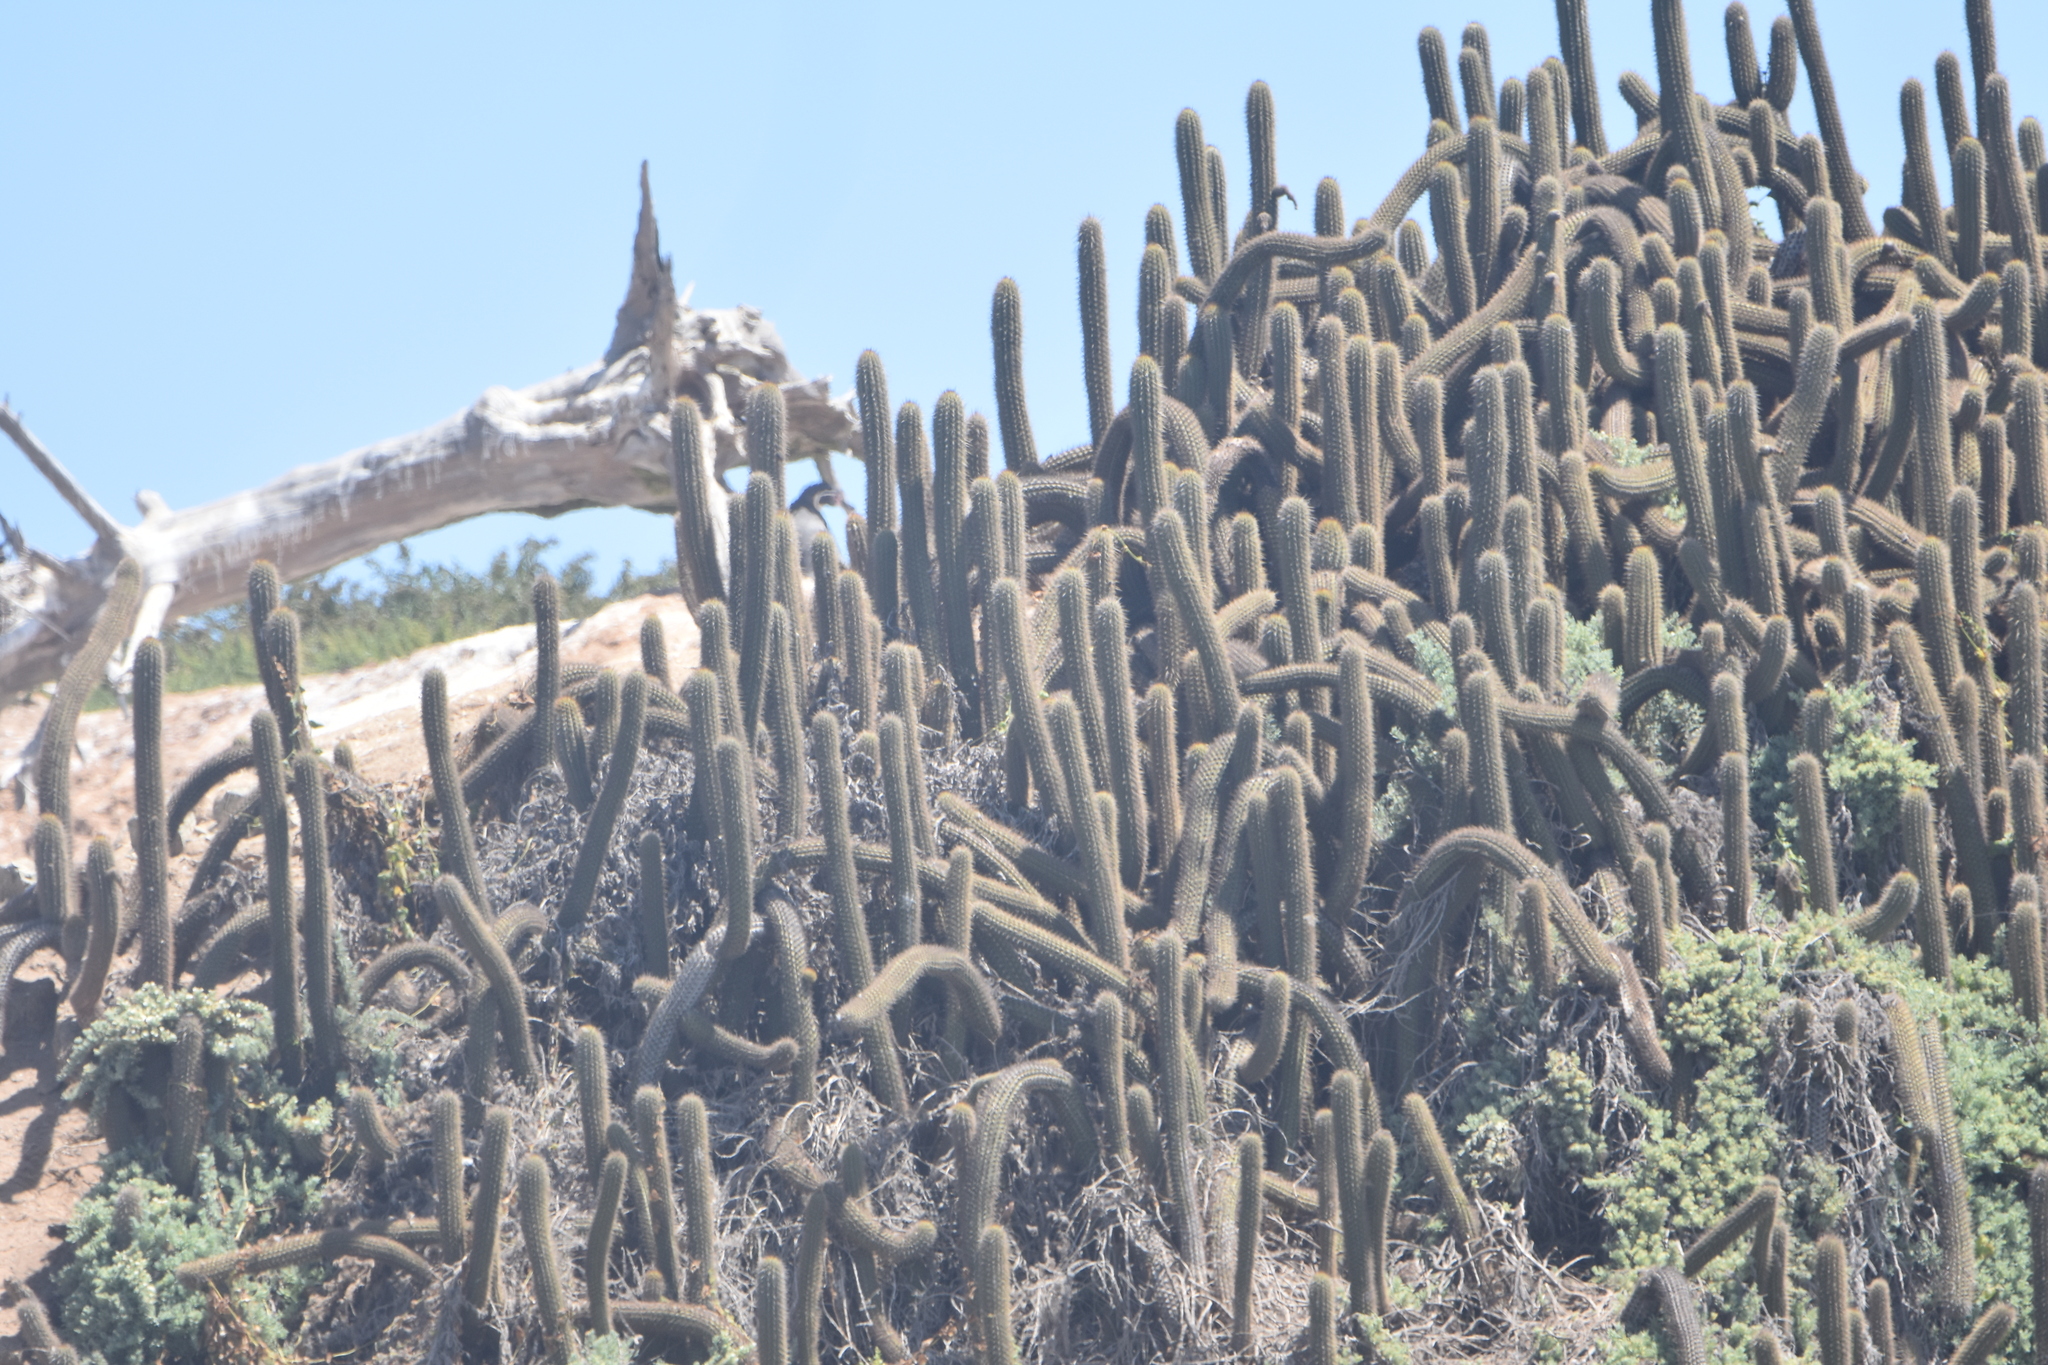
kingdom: Plantae
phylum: Tracheophyta
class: Magnoliopsida
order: Caryophyllales
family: Cactaceae
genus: Leucostele
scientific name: Leucostele litoralis
